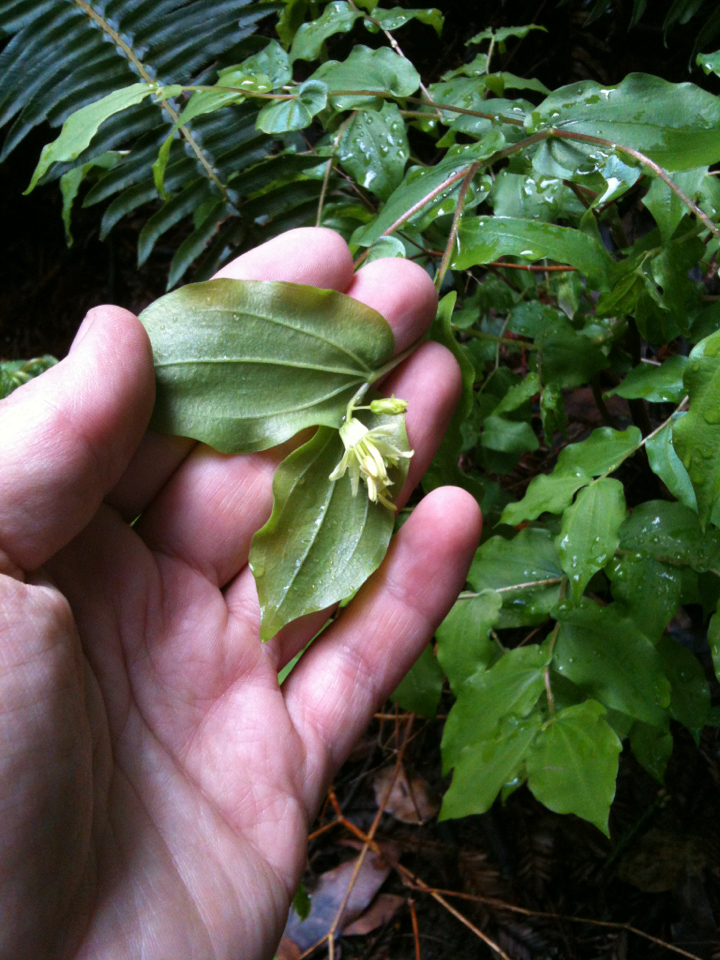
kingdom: Plantae
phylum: Tracheophyta
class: Liliopsida
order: Liliales
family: Liliaceae
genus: Prosartes
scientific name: Prosartes hookeri
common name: Fairy-bells
